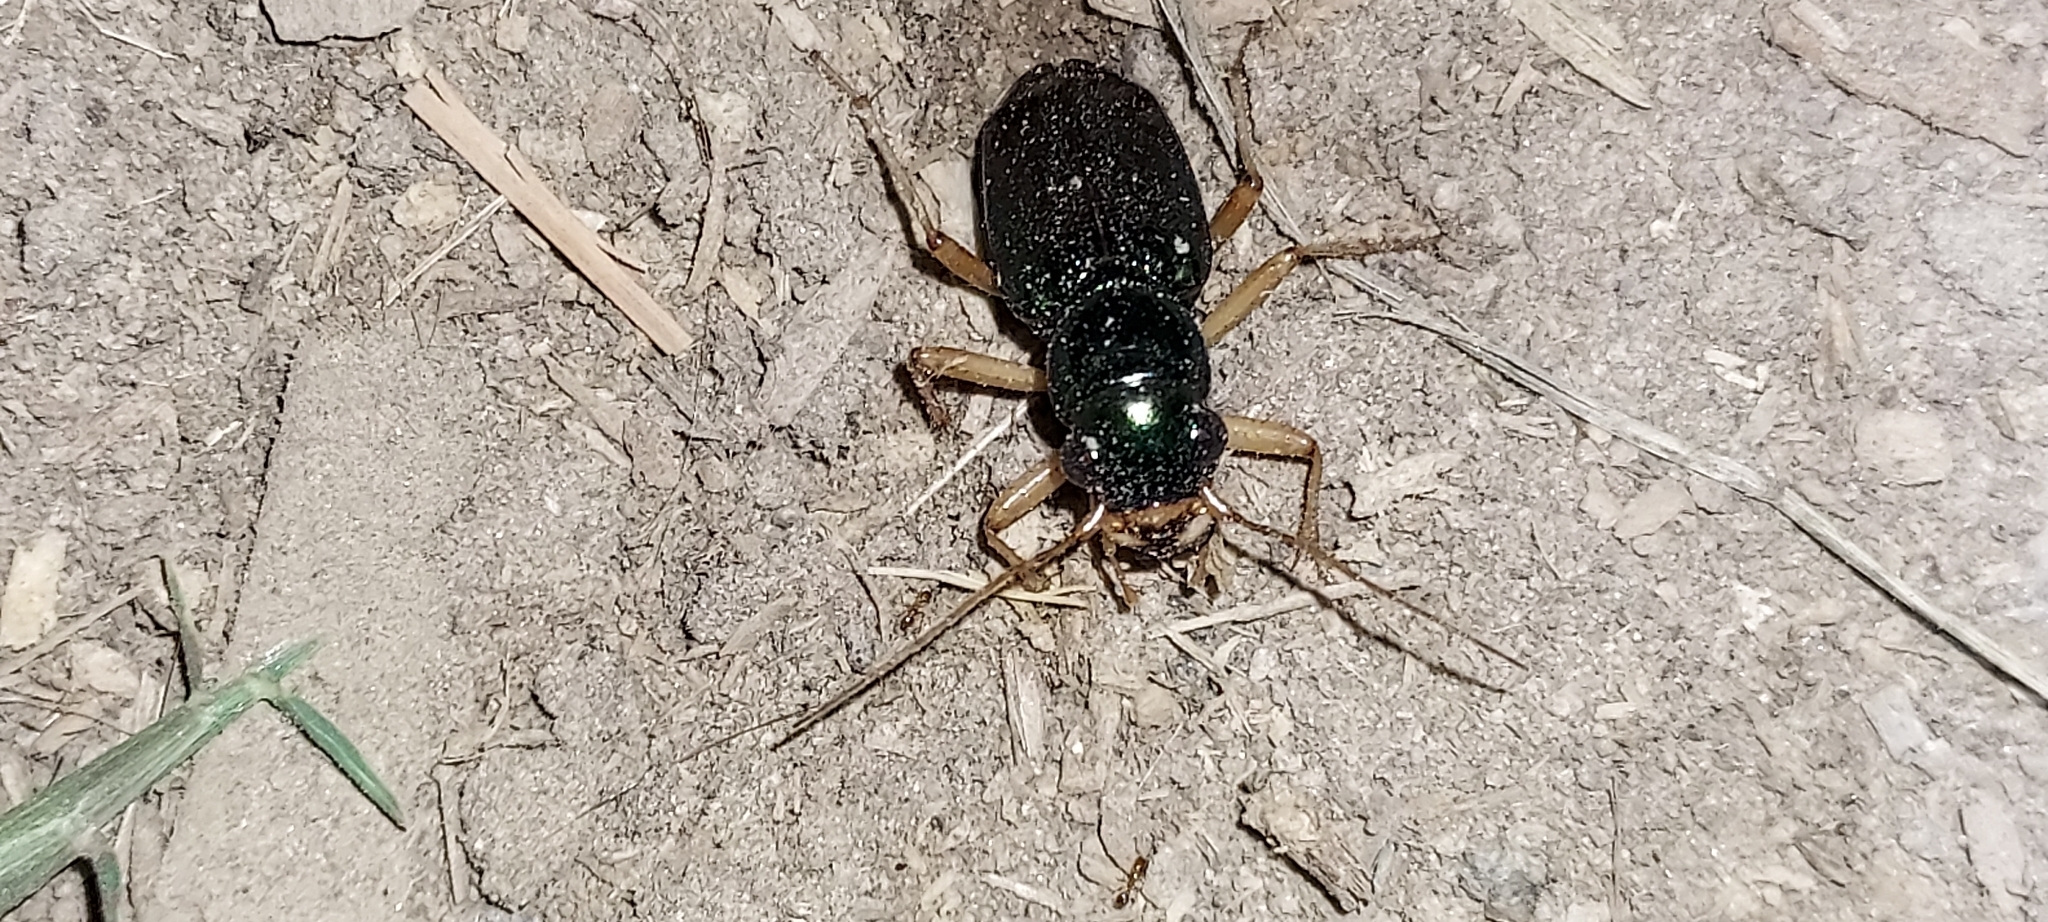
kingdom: Animalia
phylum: Arthropoda
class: Insecta
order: Coleoptera
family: Carabidae
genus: Tetracha
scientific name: Tetracha virginica
